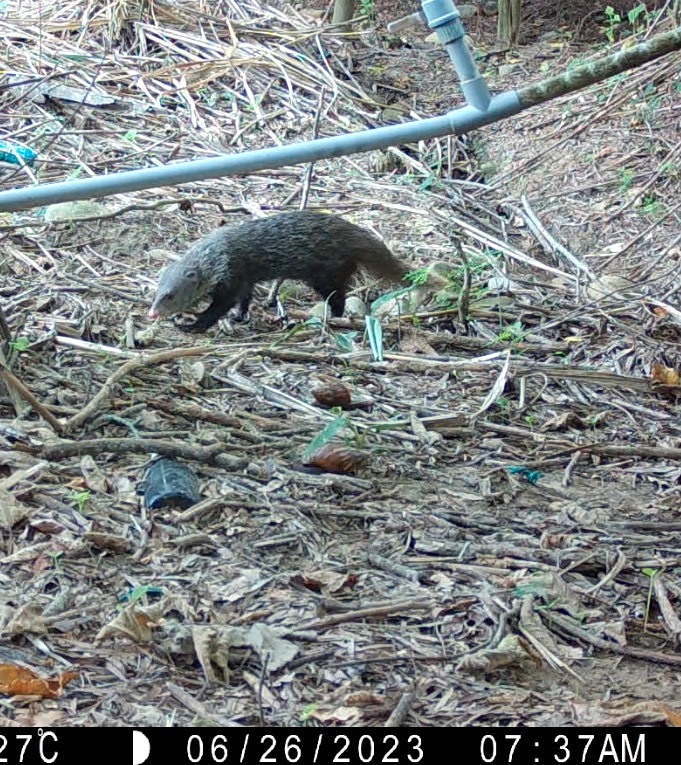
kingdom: Animalia
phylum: Chordata
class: Mammalia
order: Carnivora
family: Herpestidae
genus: Herpestes
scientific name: Herpestes urva
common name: Crab-eating mongoose
